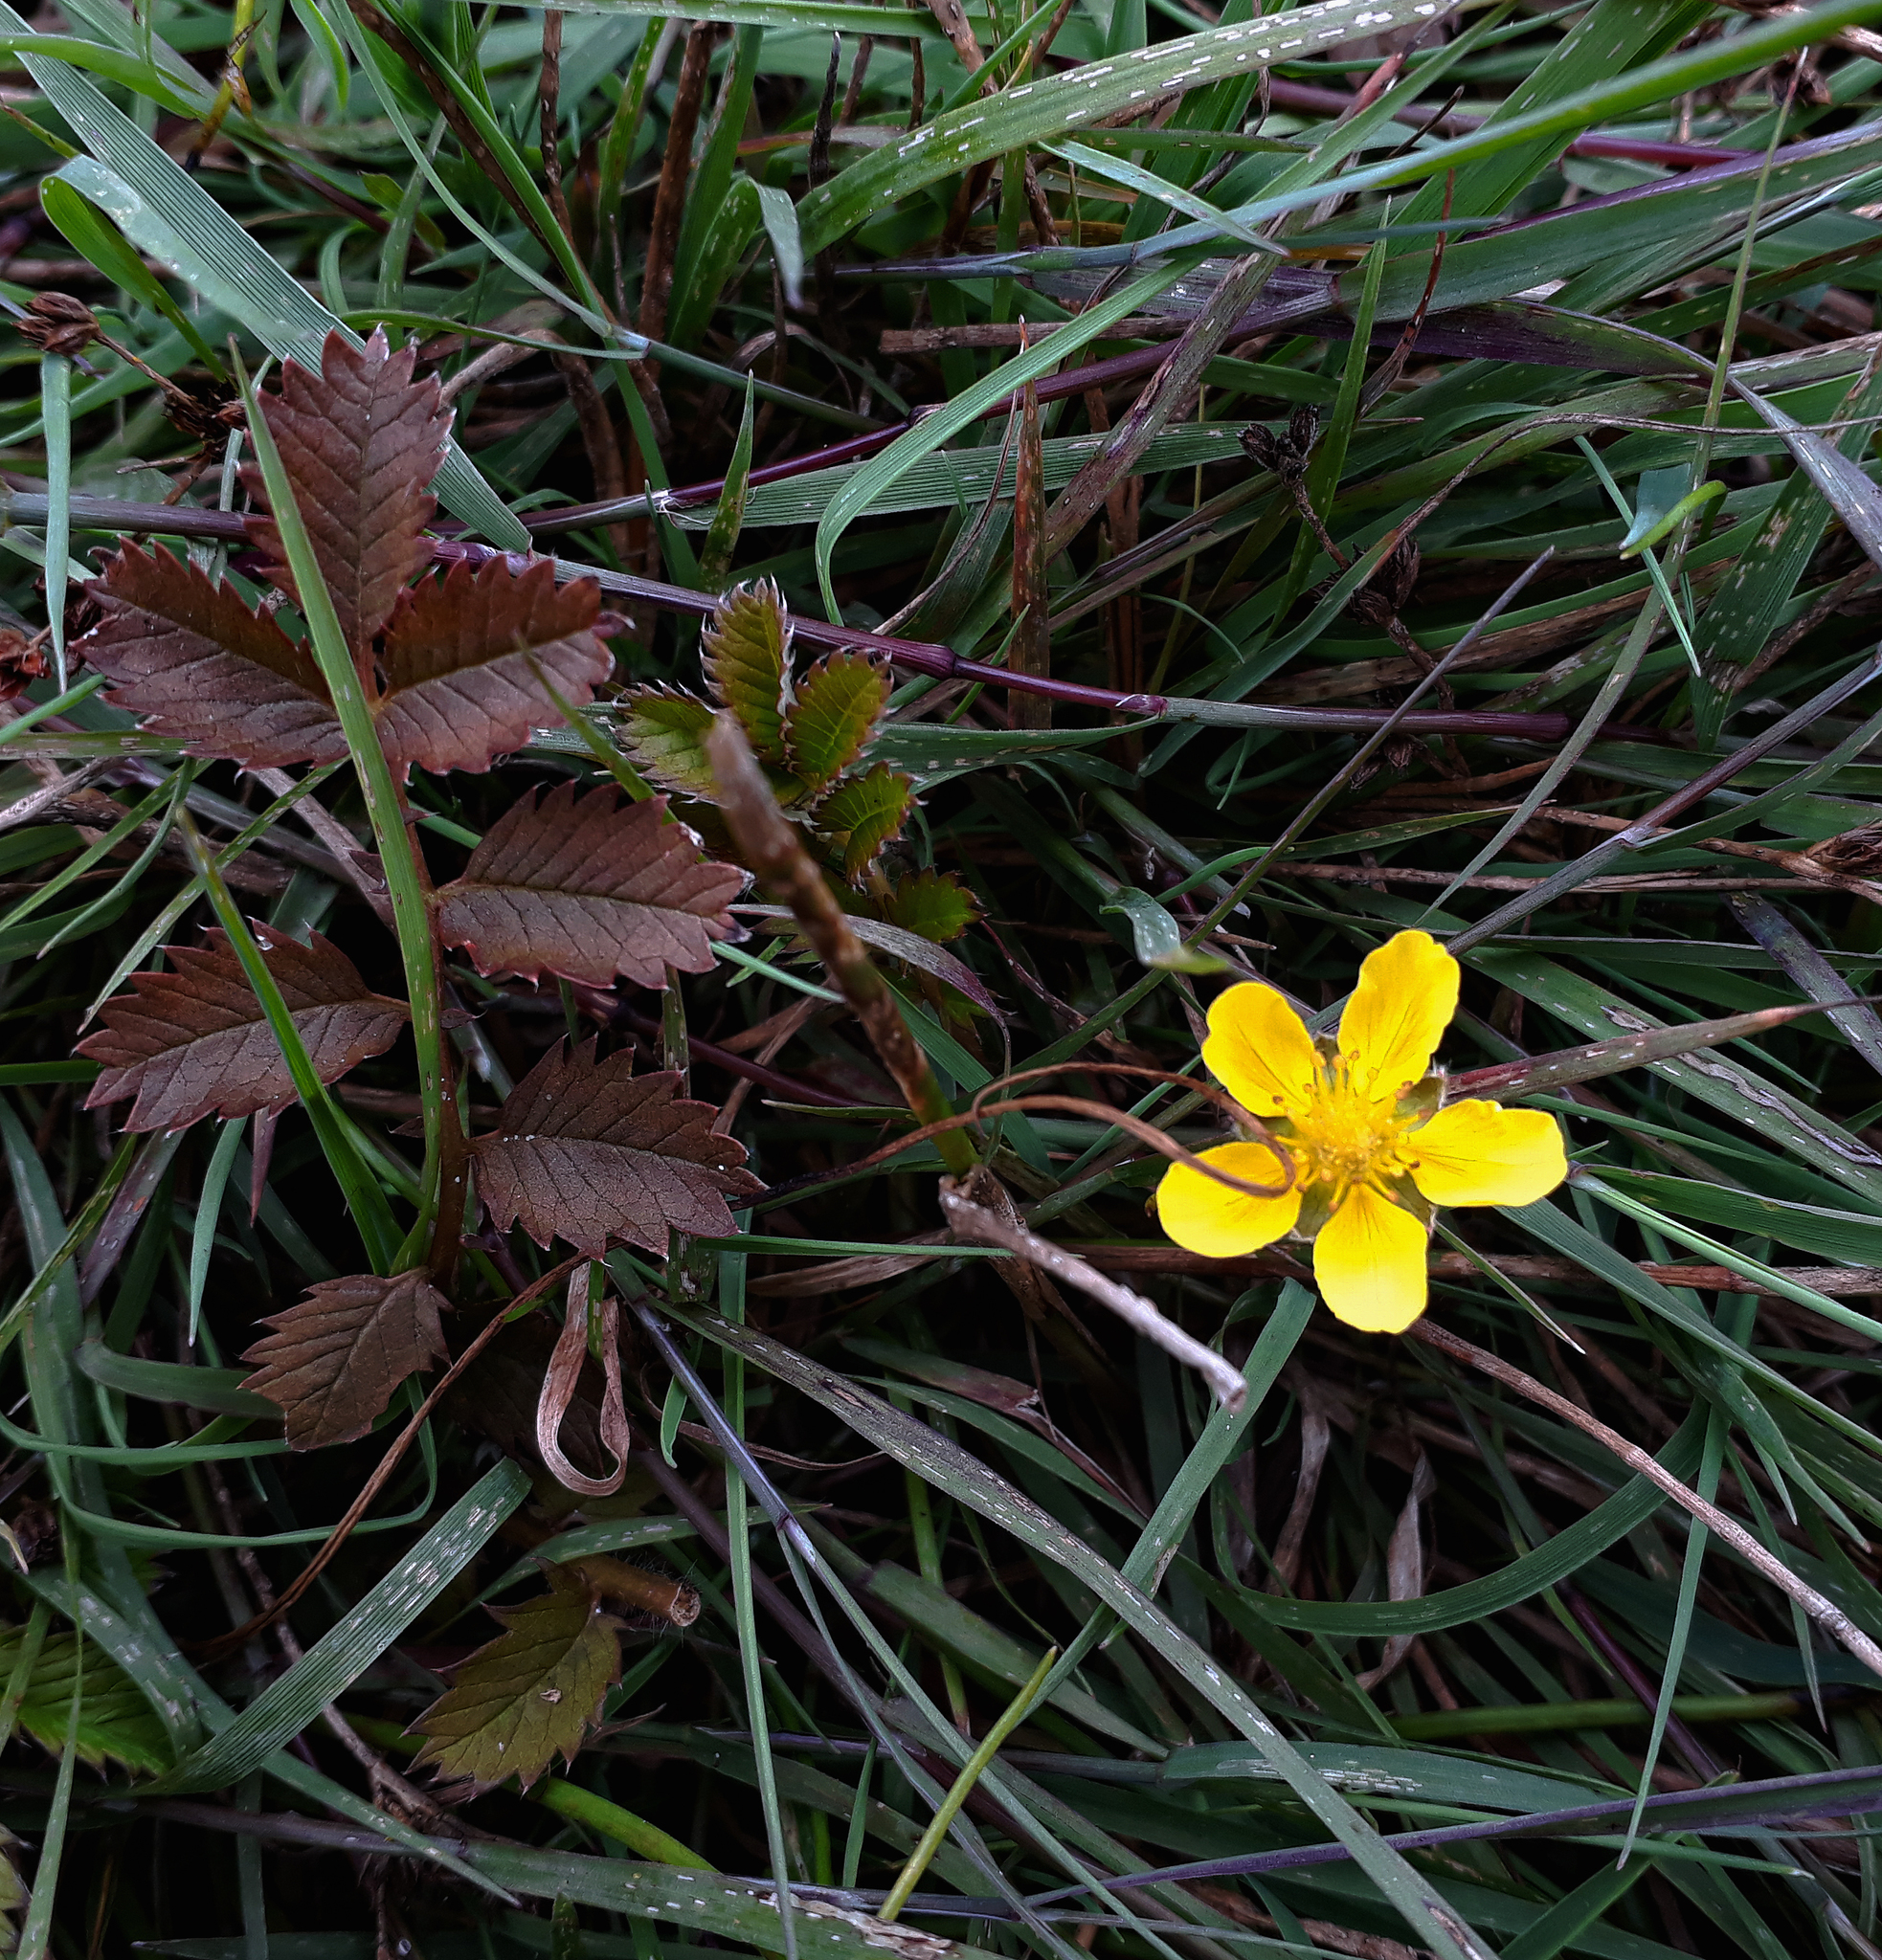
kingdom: Plantae
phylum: Tracheophyta
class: Magnoliopsida
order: Rosales
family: Rosaceae
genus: Argentina
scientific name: Argentina anserinoides
